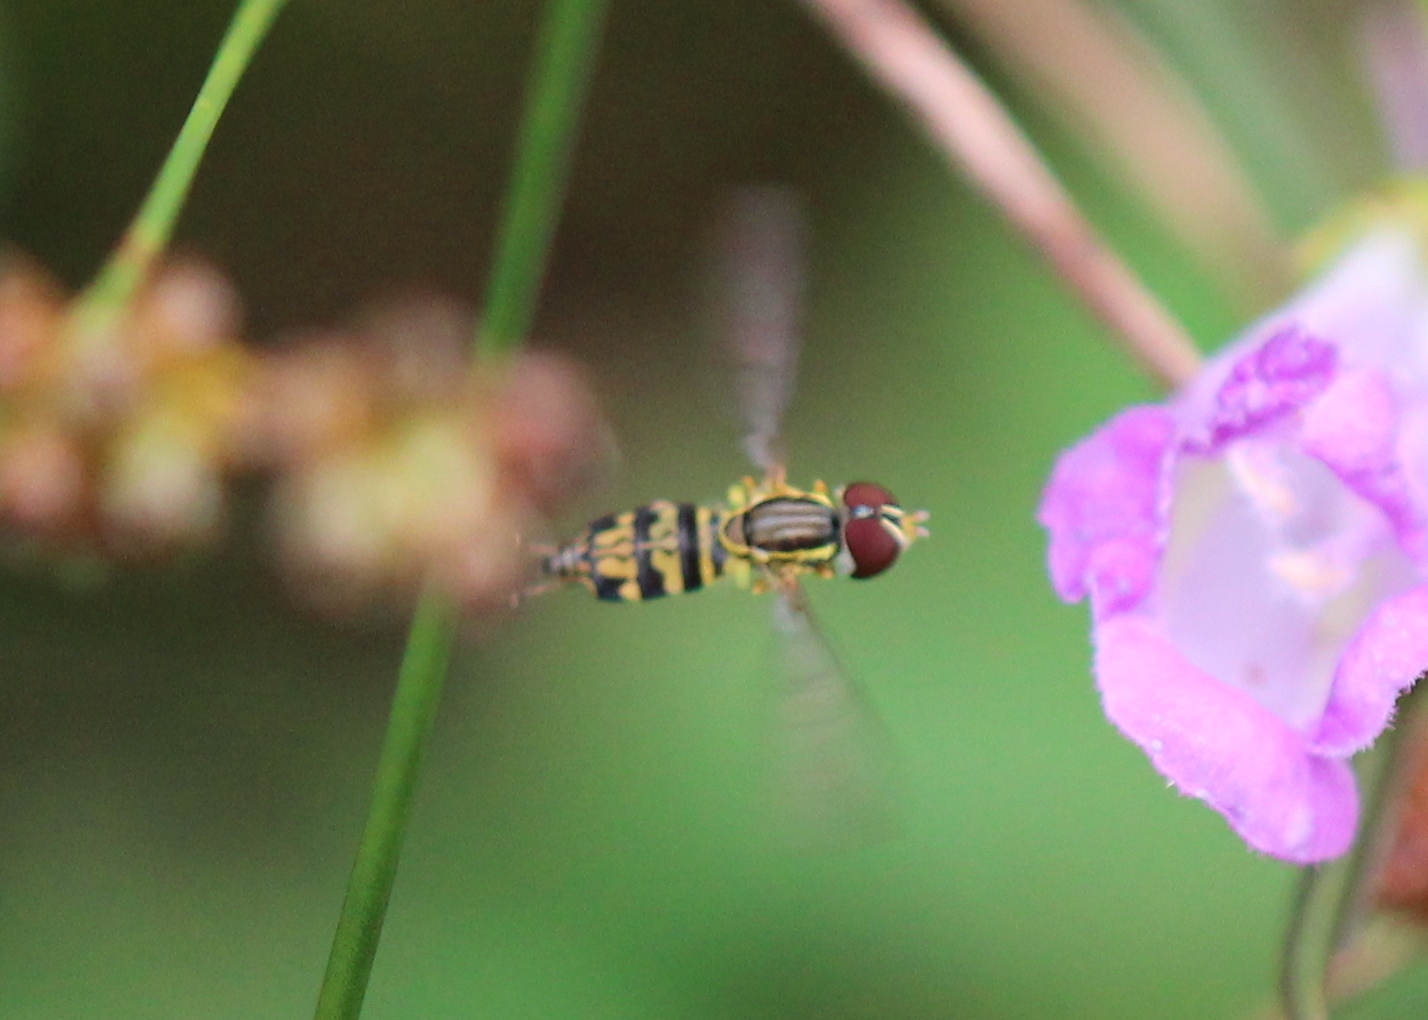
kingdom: Animalia
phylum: Arthropoda
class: Insecta
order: Diptera
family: Syrphidae
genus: Toxomerus
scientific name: Toxomerus geminatus
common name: Eastern calligrapher
